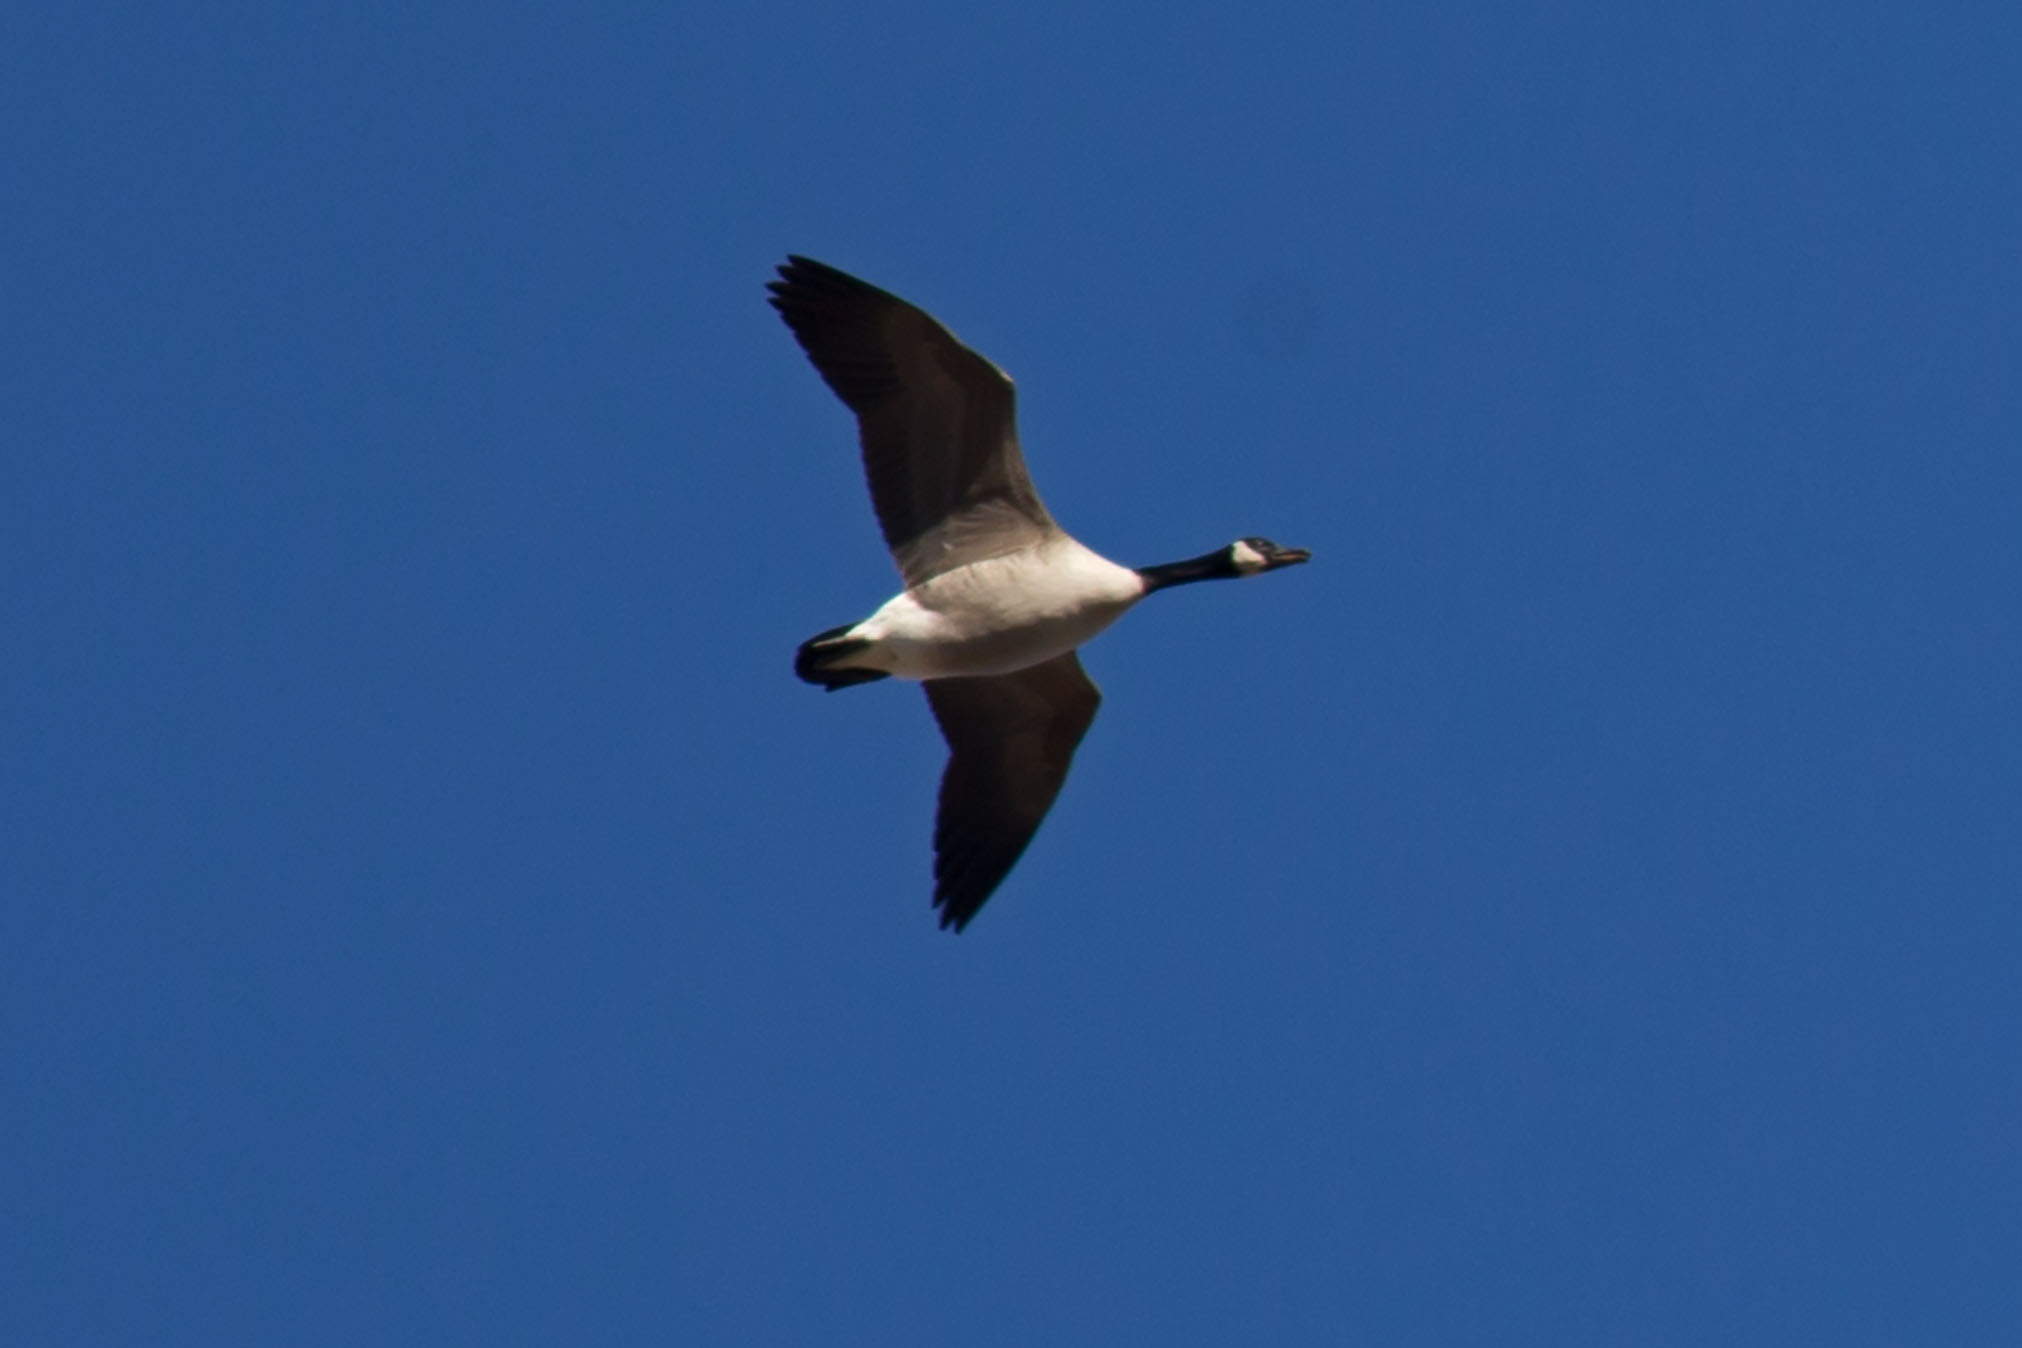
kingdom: Animalia
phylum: Chordata
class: Aves
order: Anseriformes
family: Anatidae
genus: Branta
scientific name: Branta canadensis
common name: Canada goose
